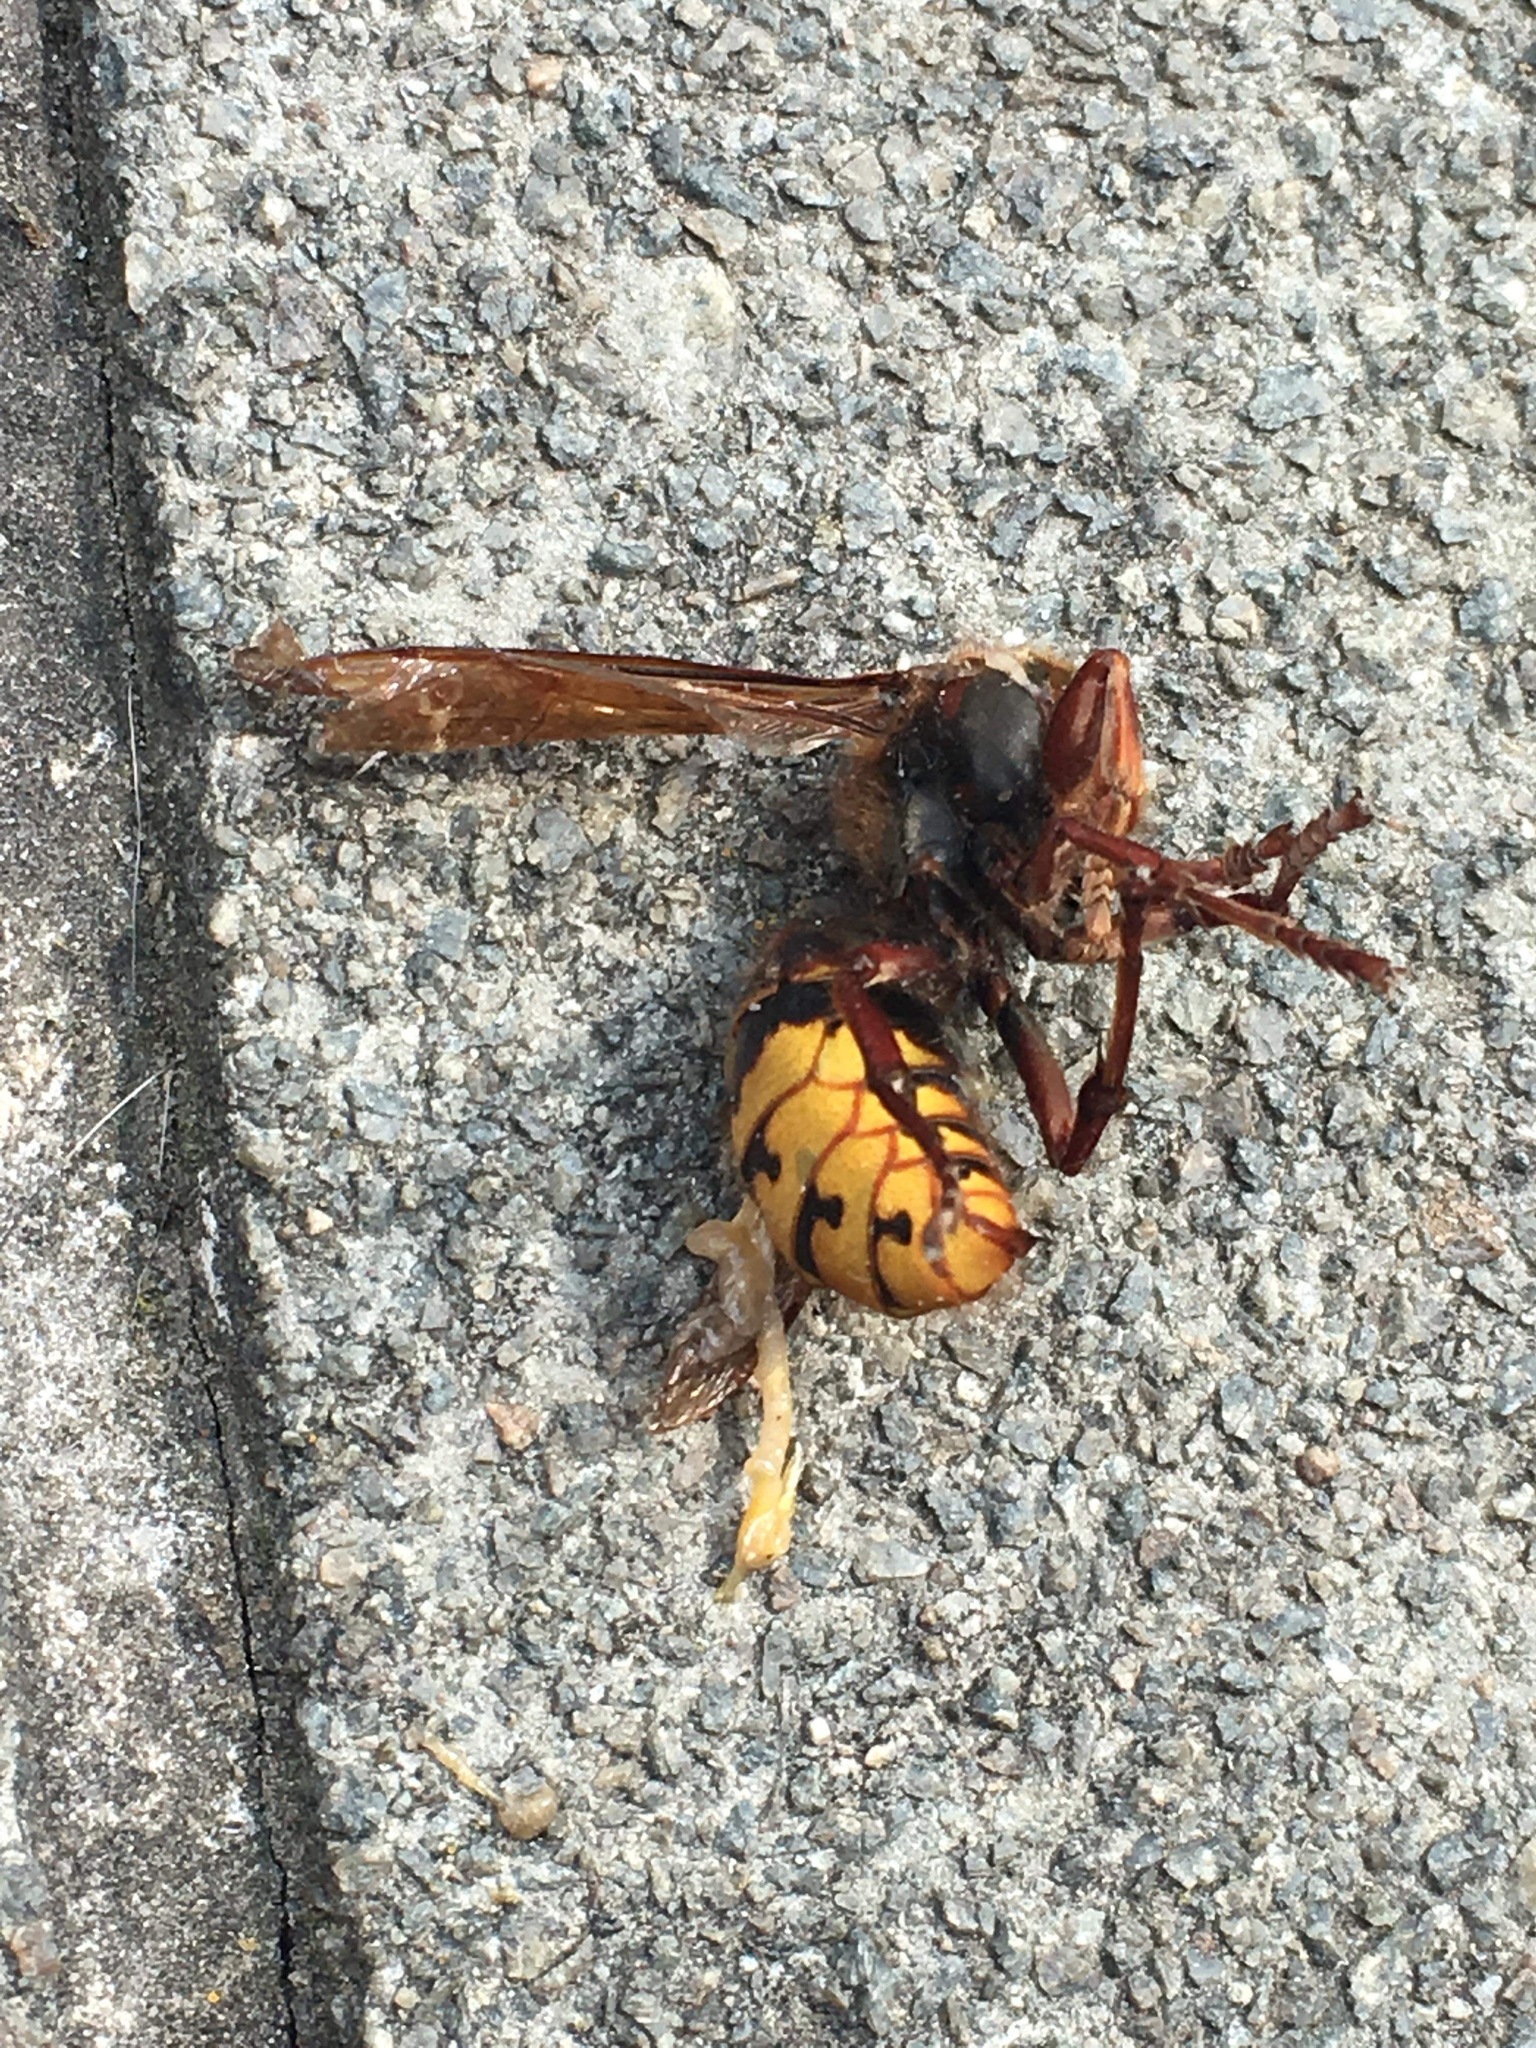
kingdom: Animalia
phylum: Arthropoda
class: Insecta
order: Hymenoptera
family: Vespidae
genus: Vespa
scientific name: Vespa crabro
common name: Hornet
